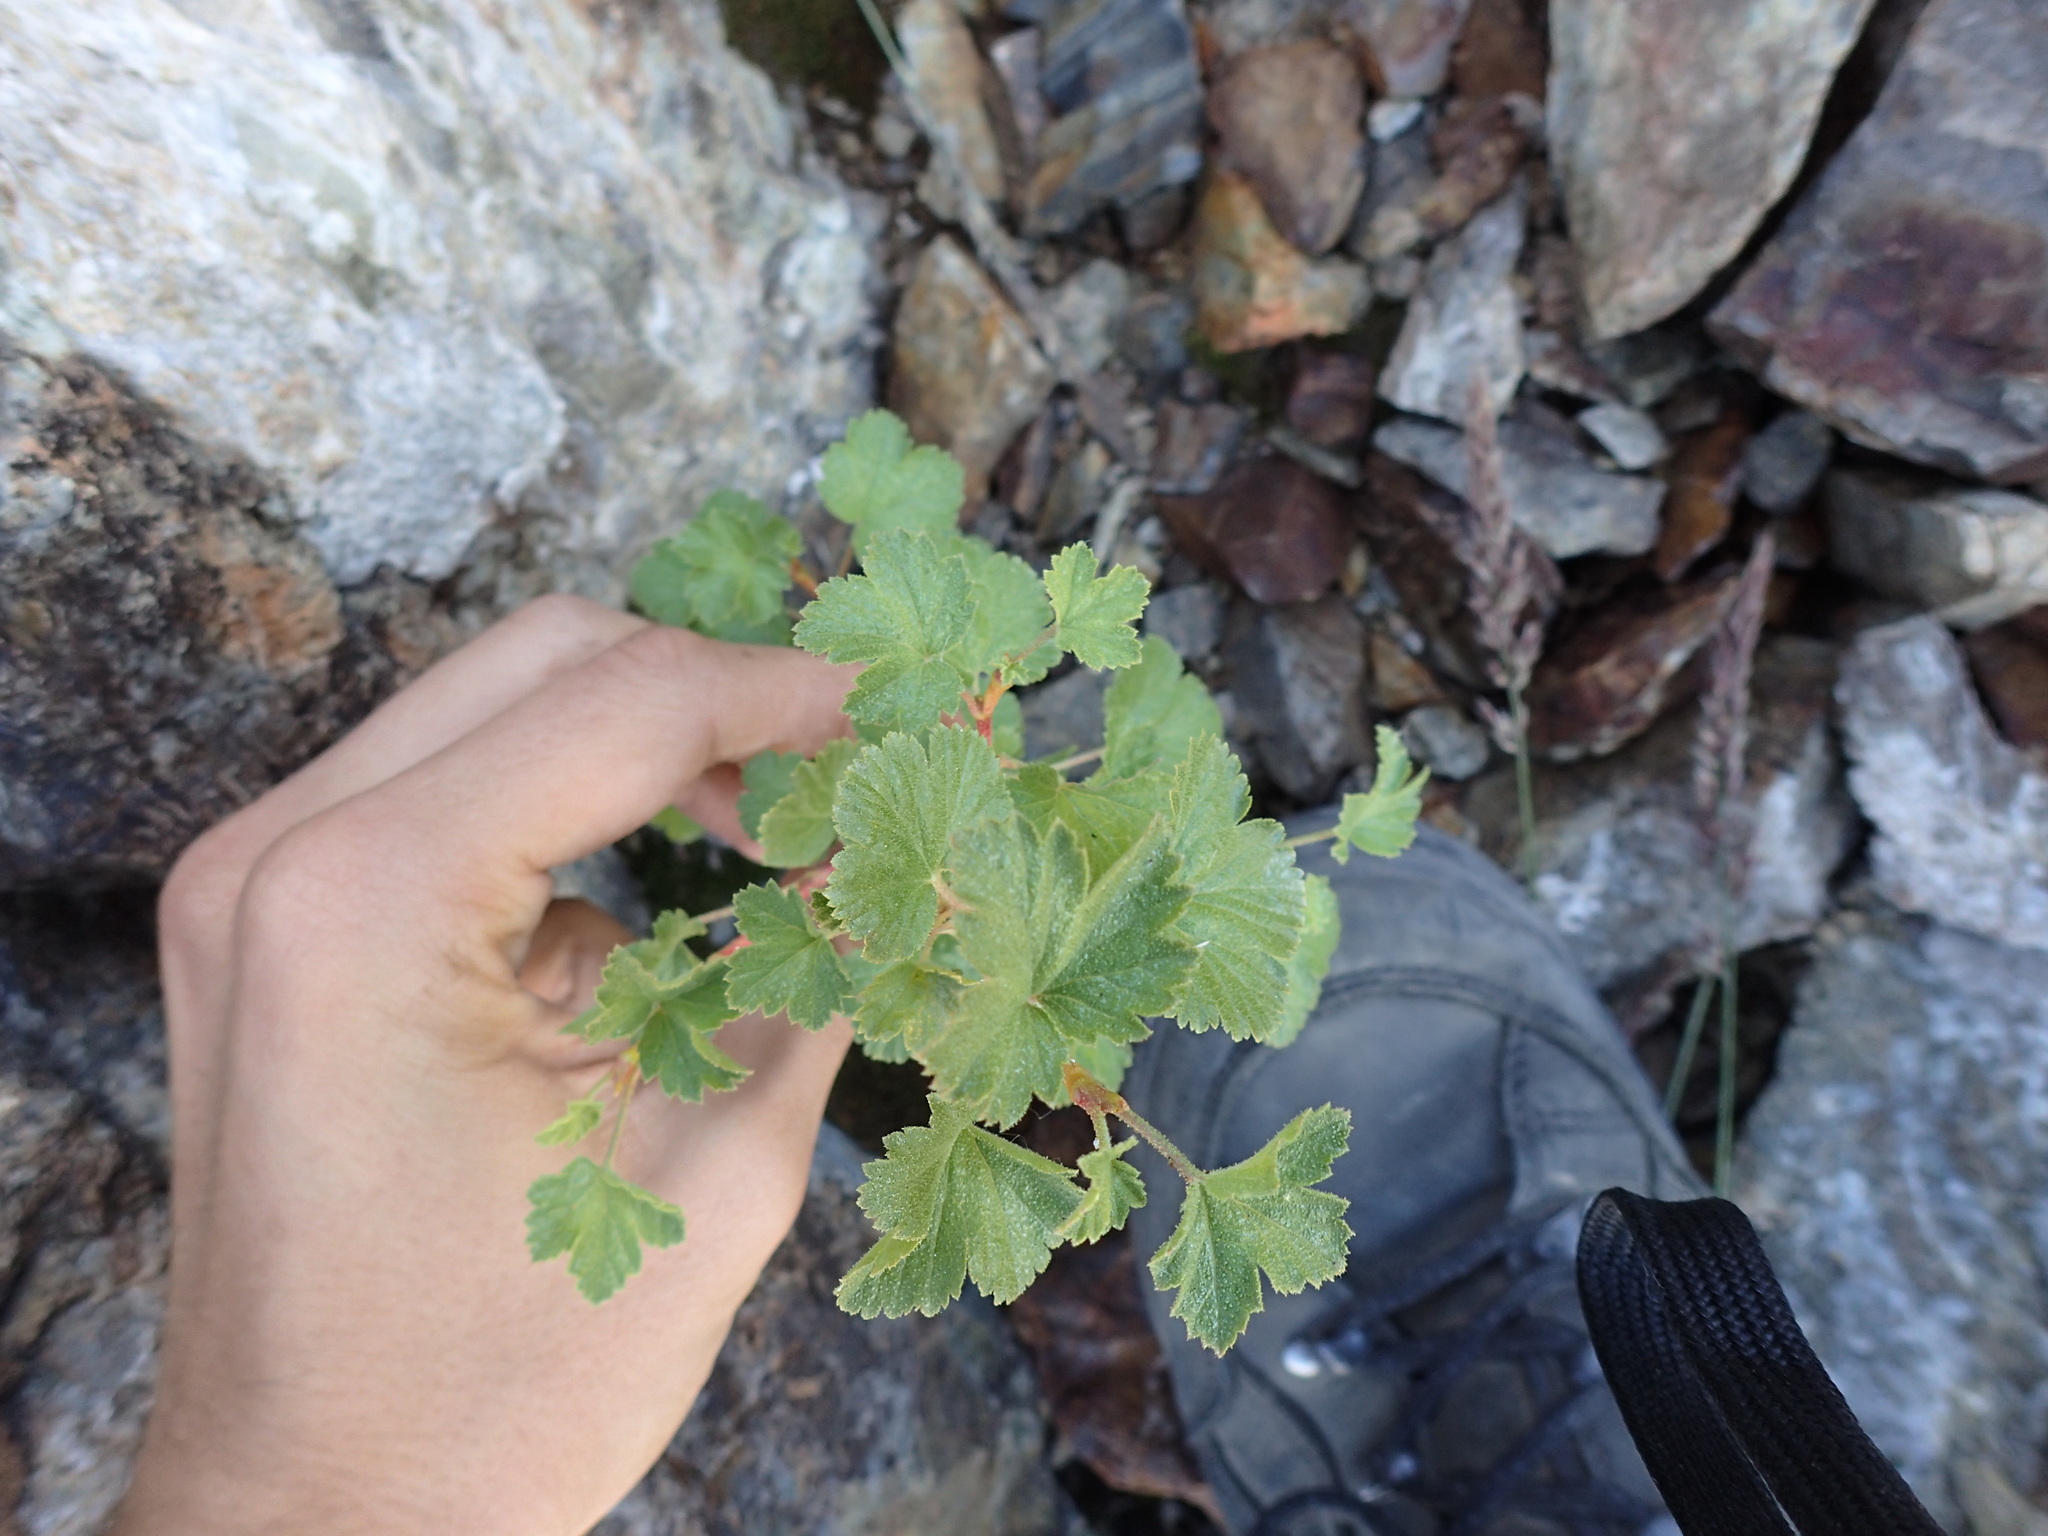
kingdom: Plantae
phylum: Tracheophyta
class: Magnoliopsida
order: Saxifragales
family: Grossulariaceae
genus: Ribes
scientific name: Ribes cereum
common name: Wax currant
